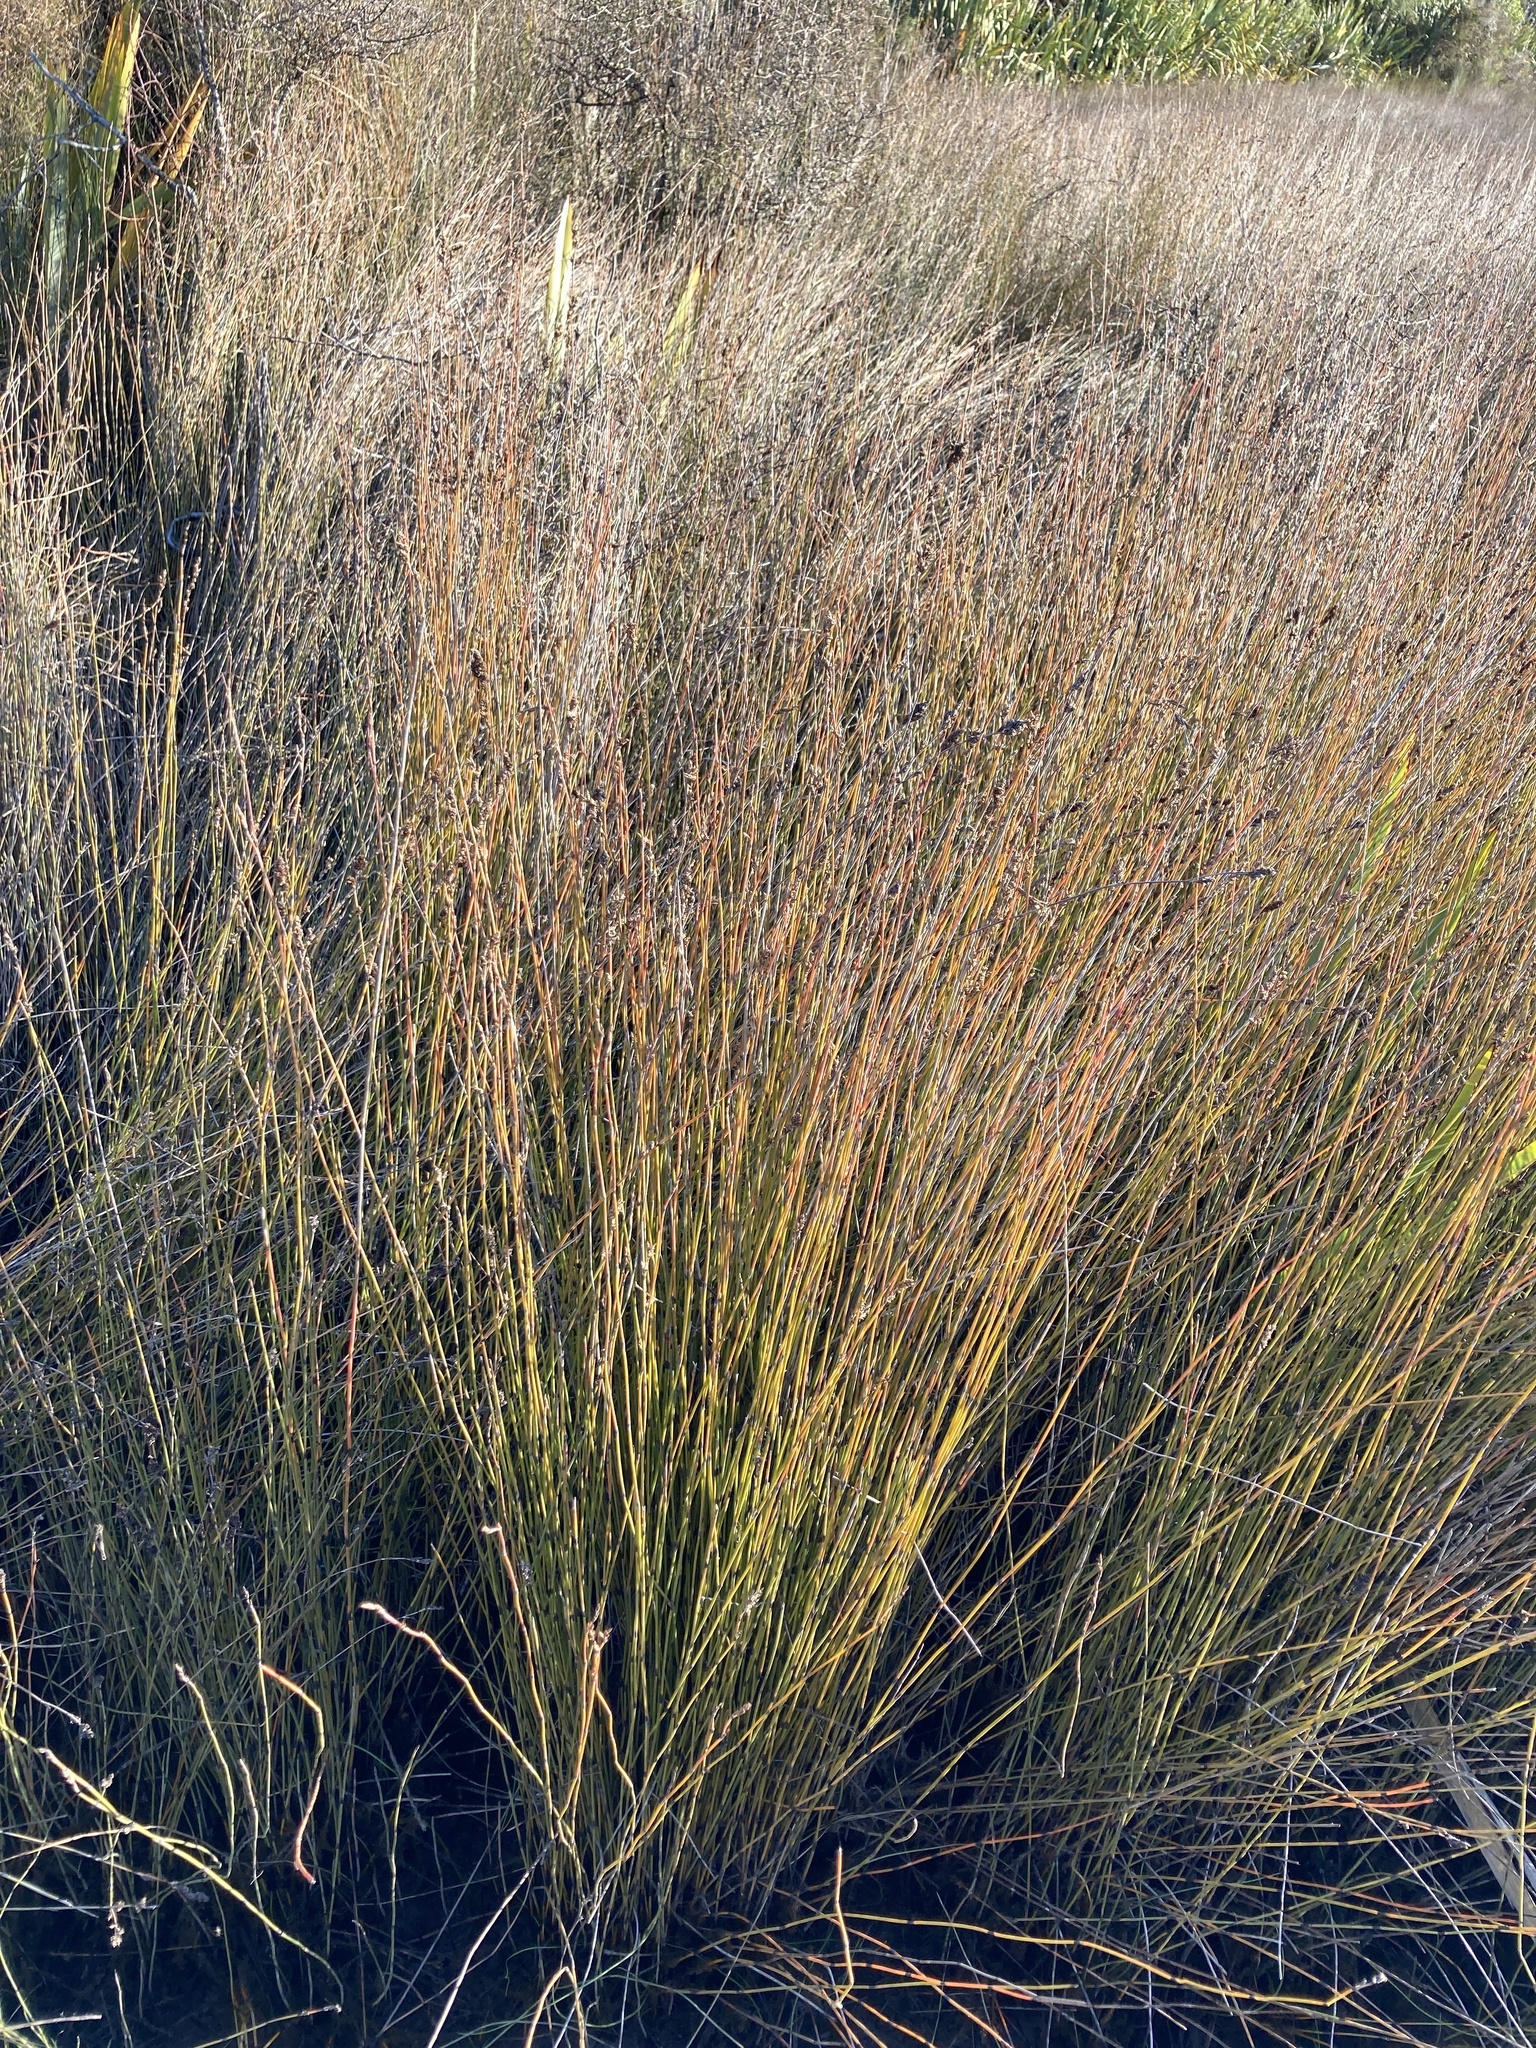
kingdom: Plantae
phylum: Tracheophyta
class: Liliopsida
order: Poales
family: Restionaceae
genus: Apodasmia
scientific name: Apodasmia similis
